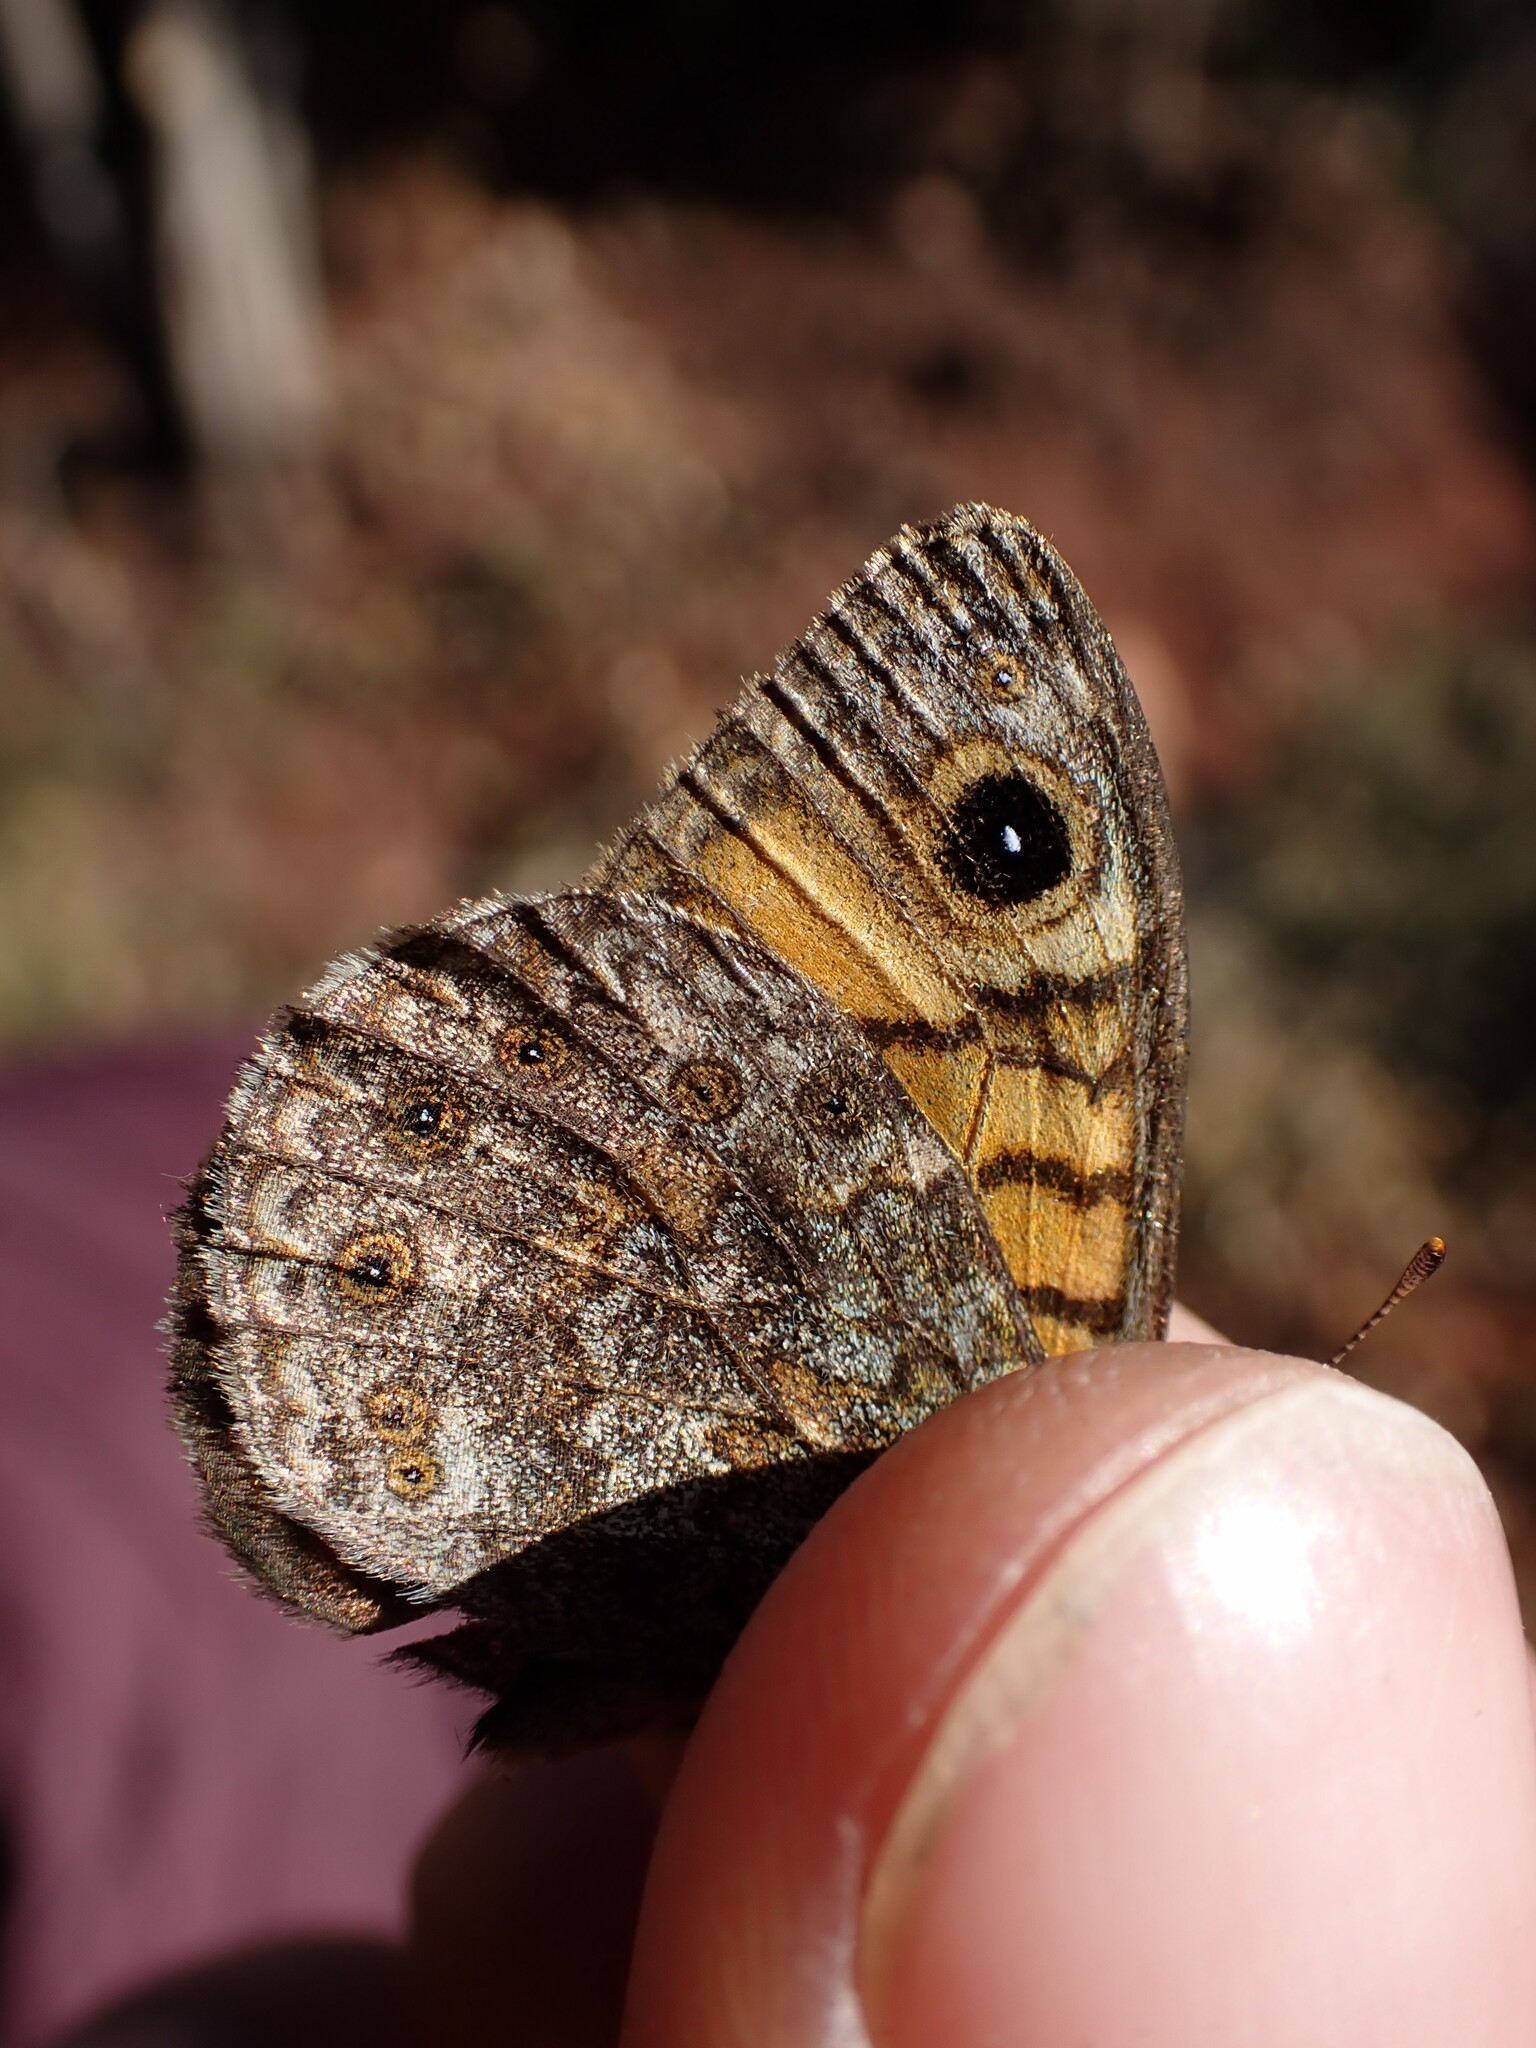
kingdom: Animalia
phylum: Arthropoda
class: Insecta
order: Lepidoptera
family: Nymphalidae
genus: Pararge
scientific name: Pararge Lasiommata megera
